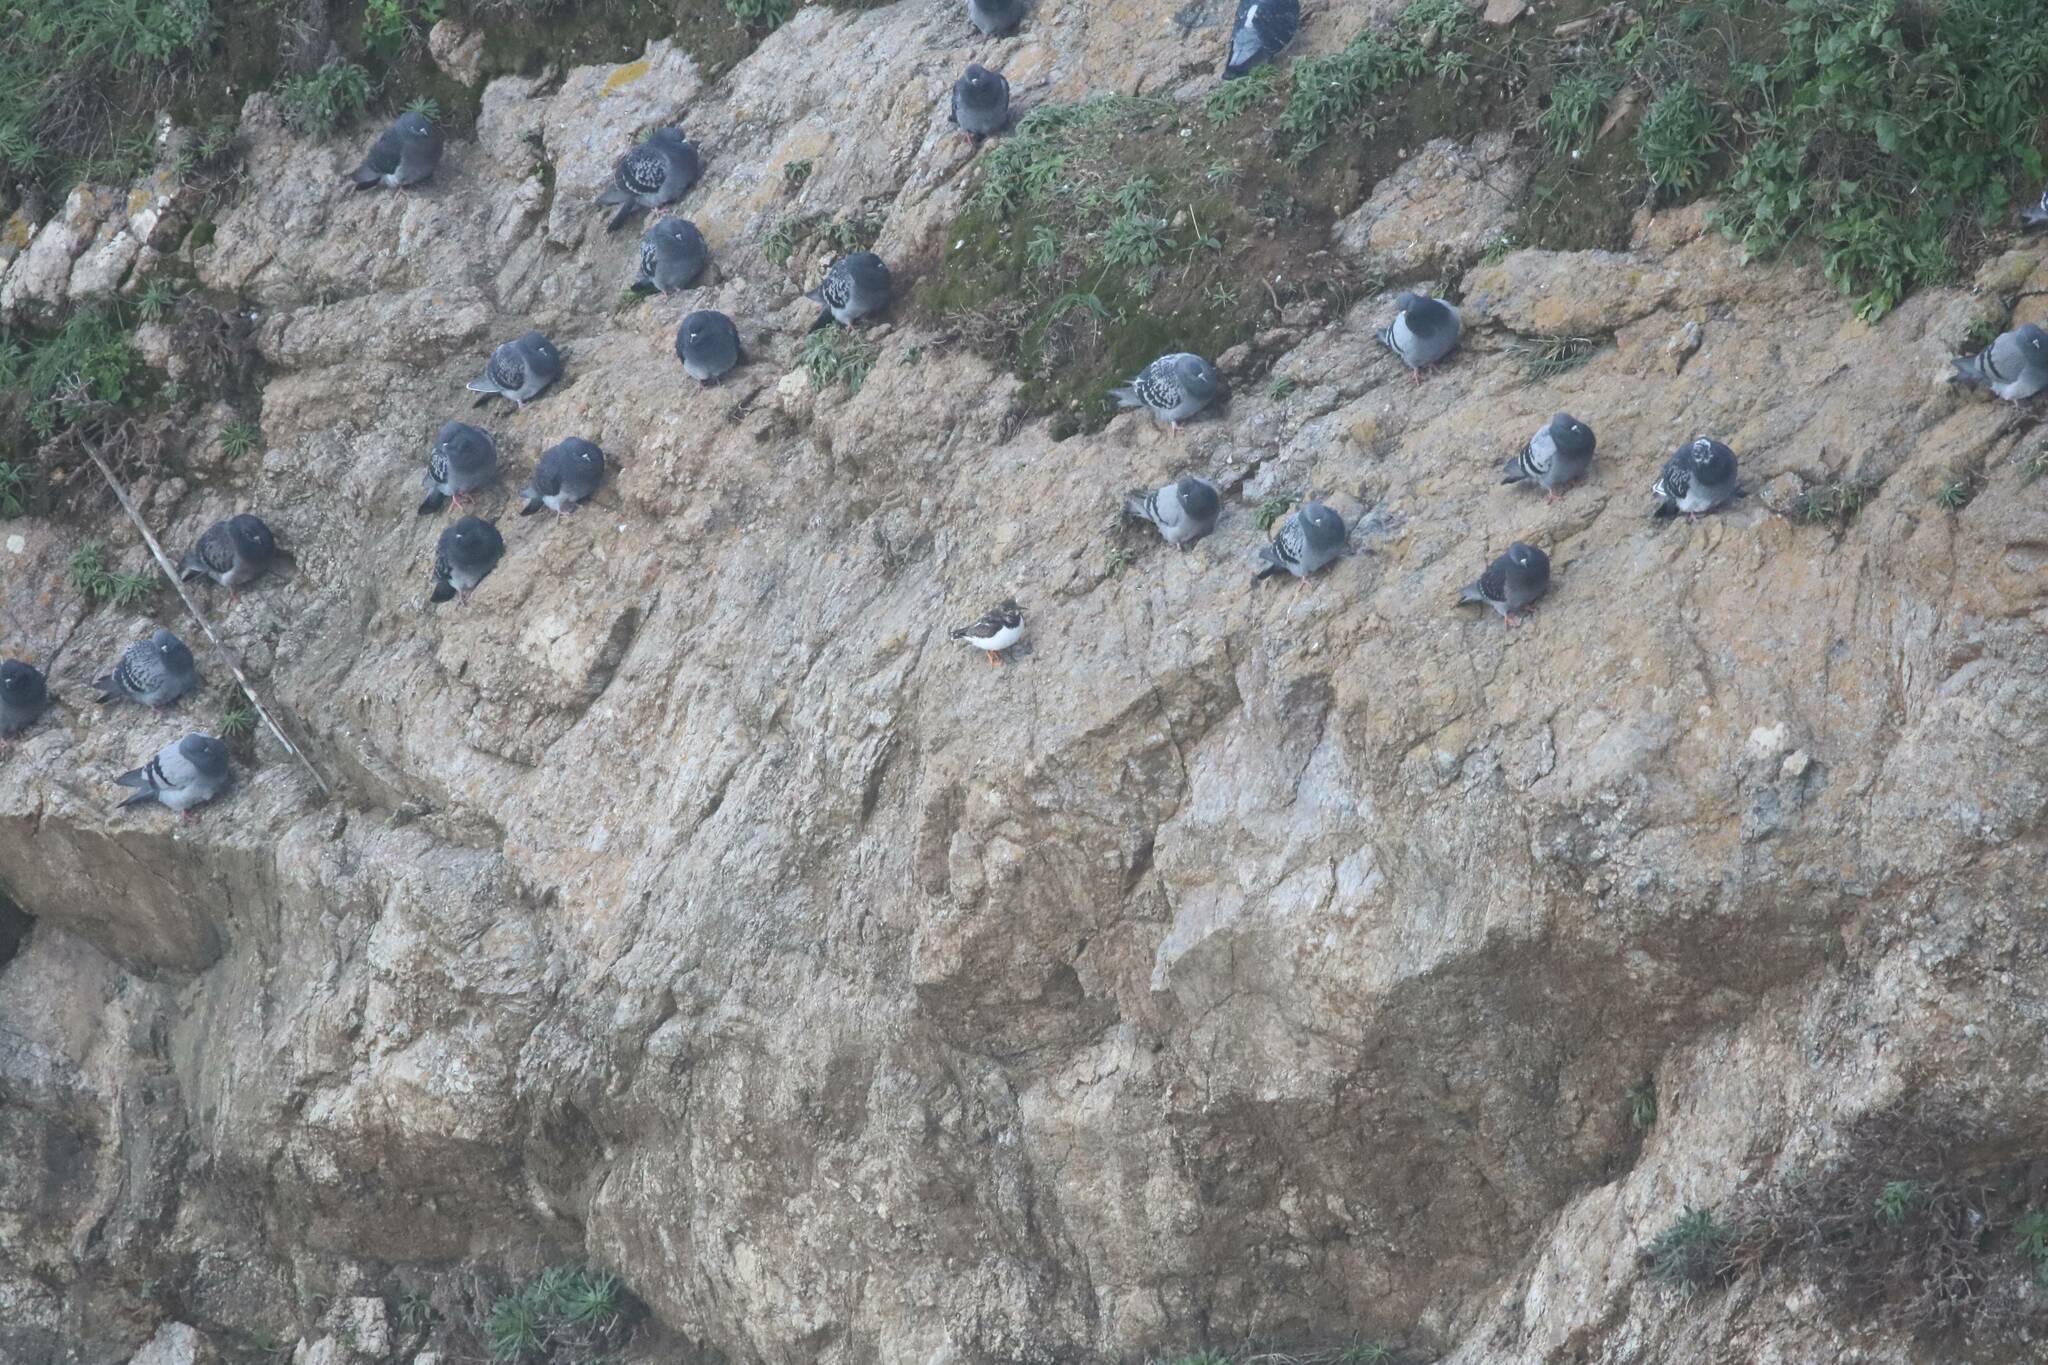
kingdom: Animalia
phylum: Chordata
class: Aves
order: Columbiformes
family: Columbidae
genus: Columba
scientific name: Columba livia
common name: Rock pigeon
